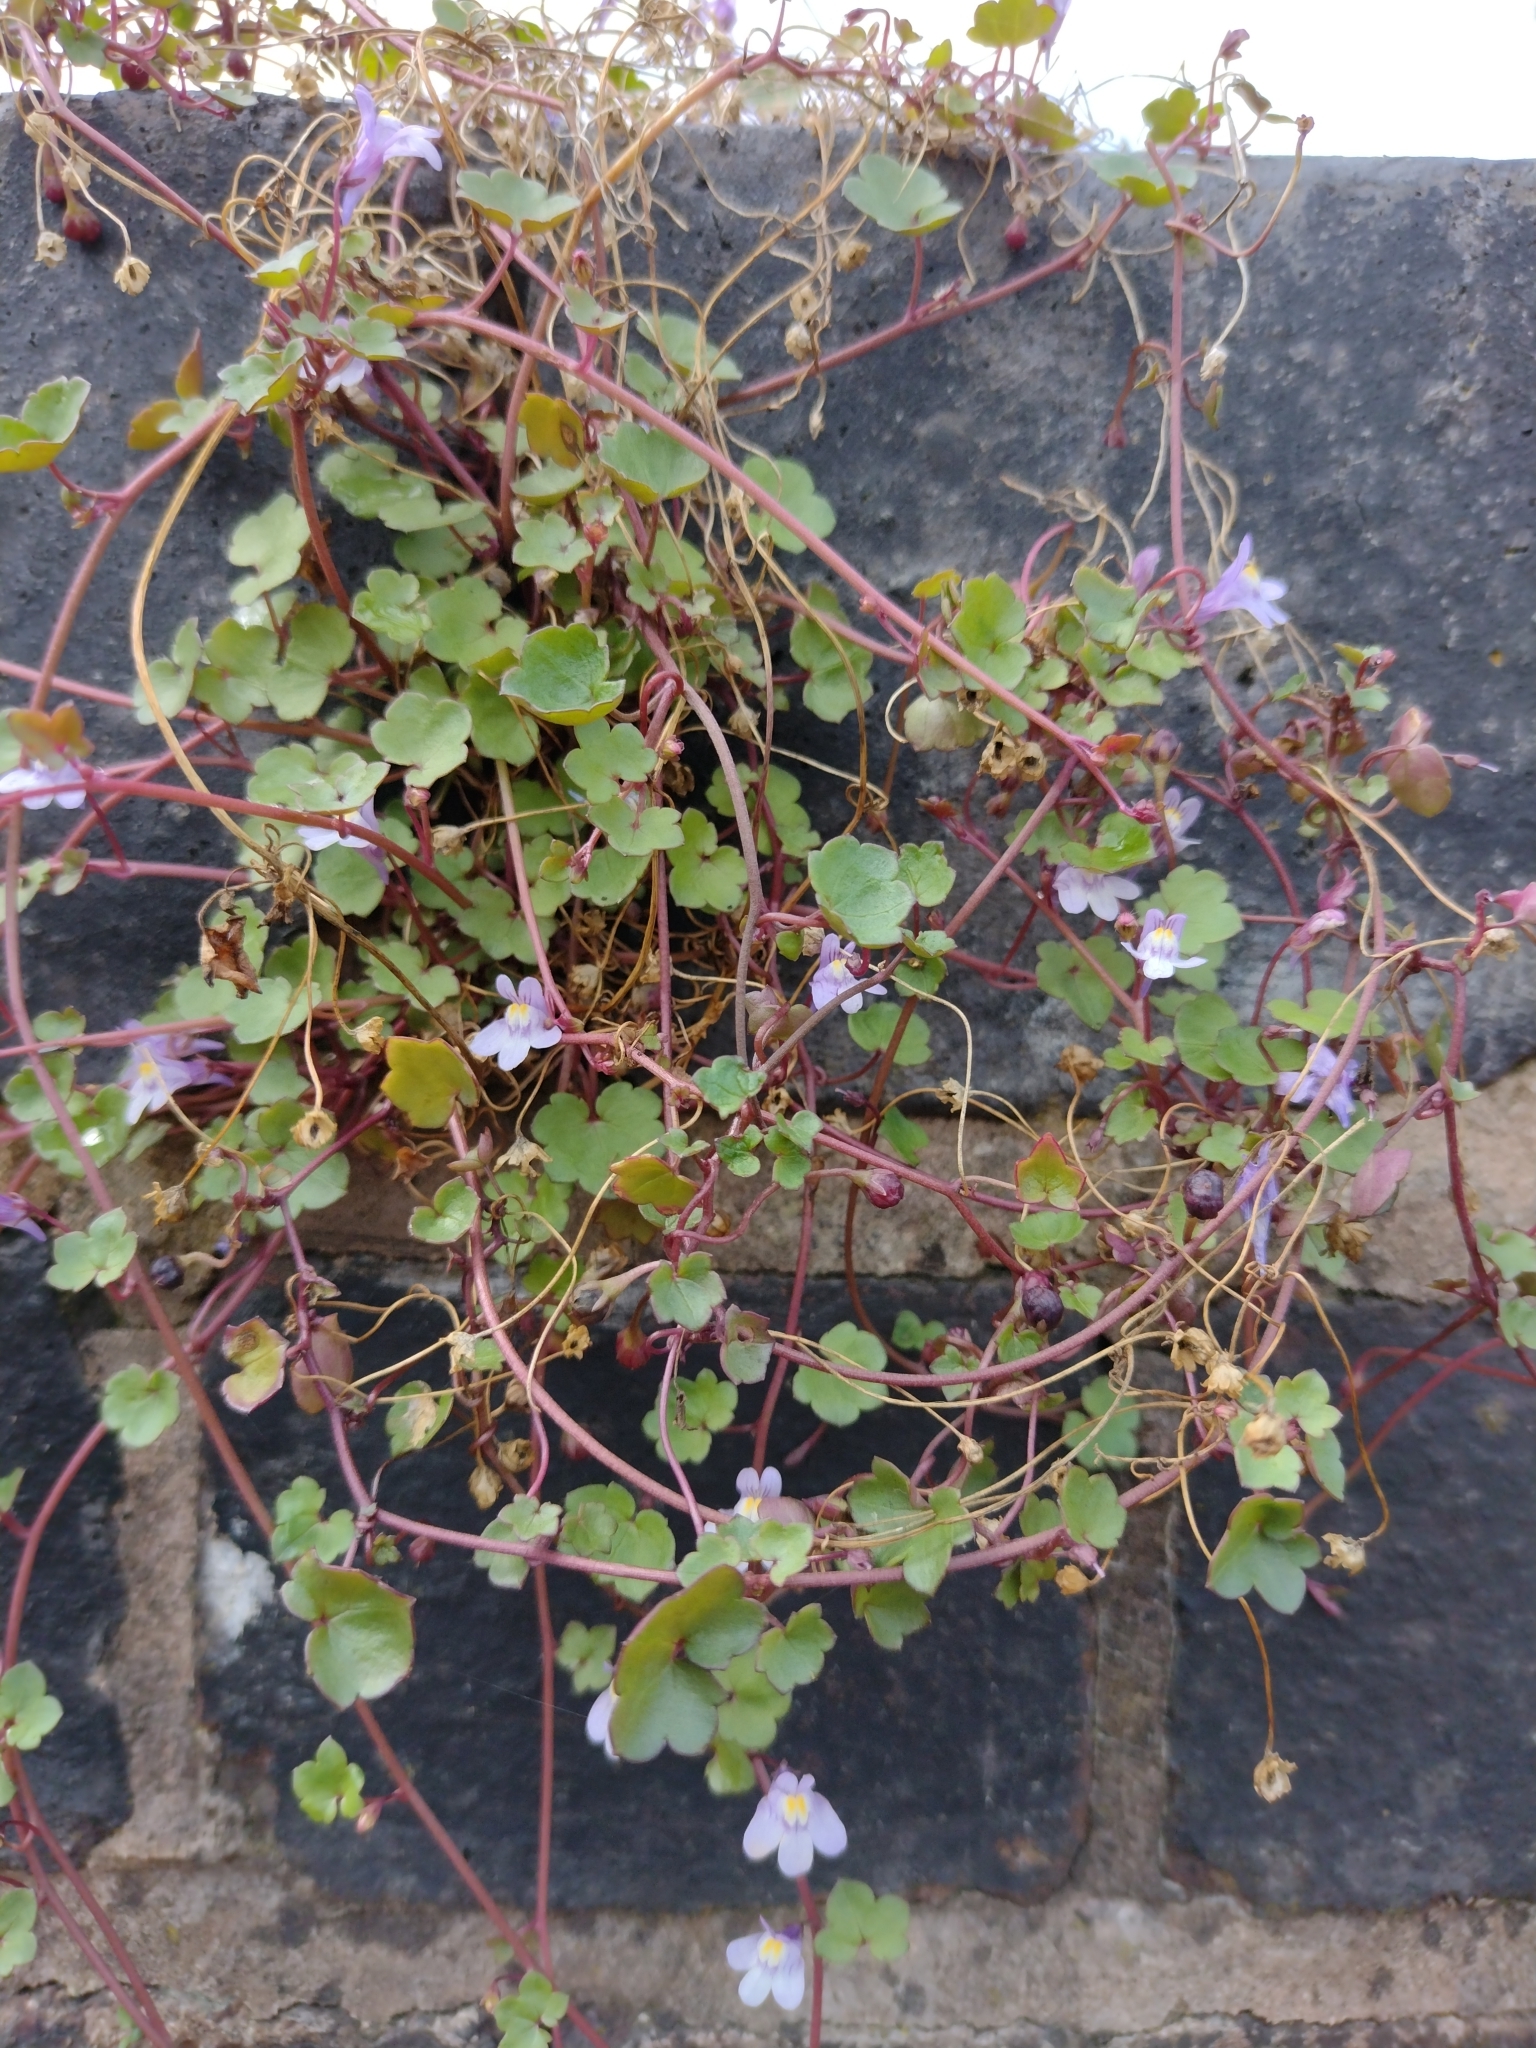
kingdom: Plantae
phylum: Tracheophyta
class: Magnoliopsida
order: Lamiales
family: Plantaginaceae
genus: Cymbalaria
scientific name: Cymbalaria muralis
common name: Ivy-leaved toadflax
